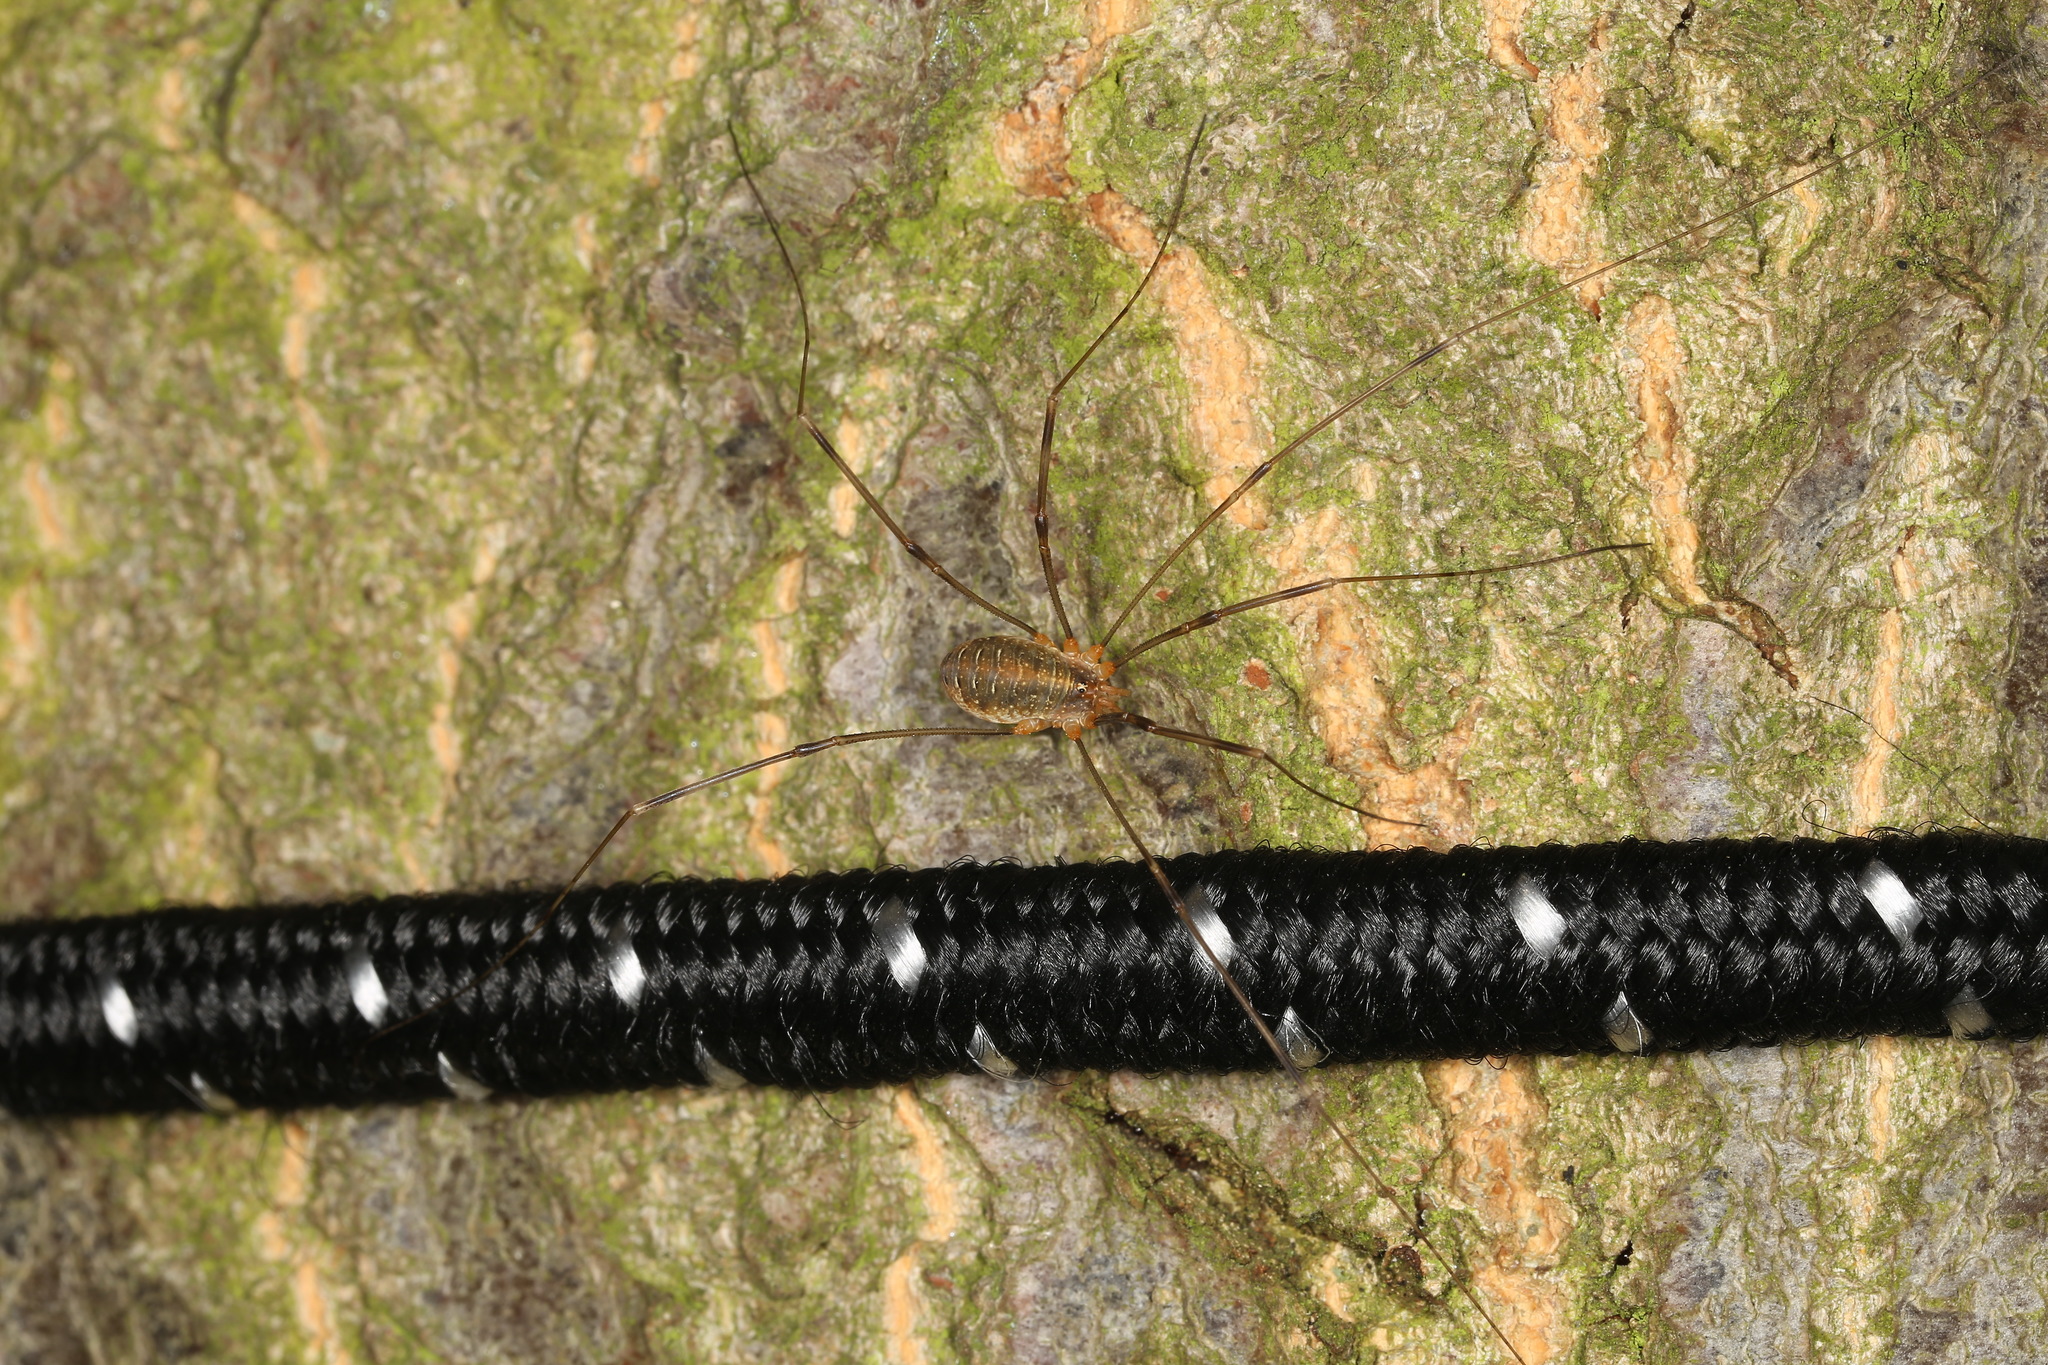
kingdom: Animalia
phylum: Arthropoda
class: Arachnida
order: Opiliones
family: Phalangiidae
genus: Opilio
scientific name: Opilio canestrinii
